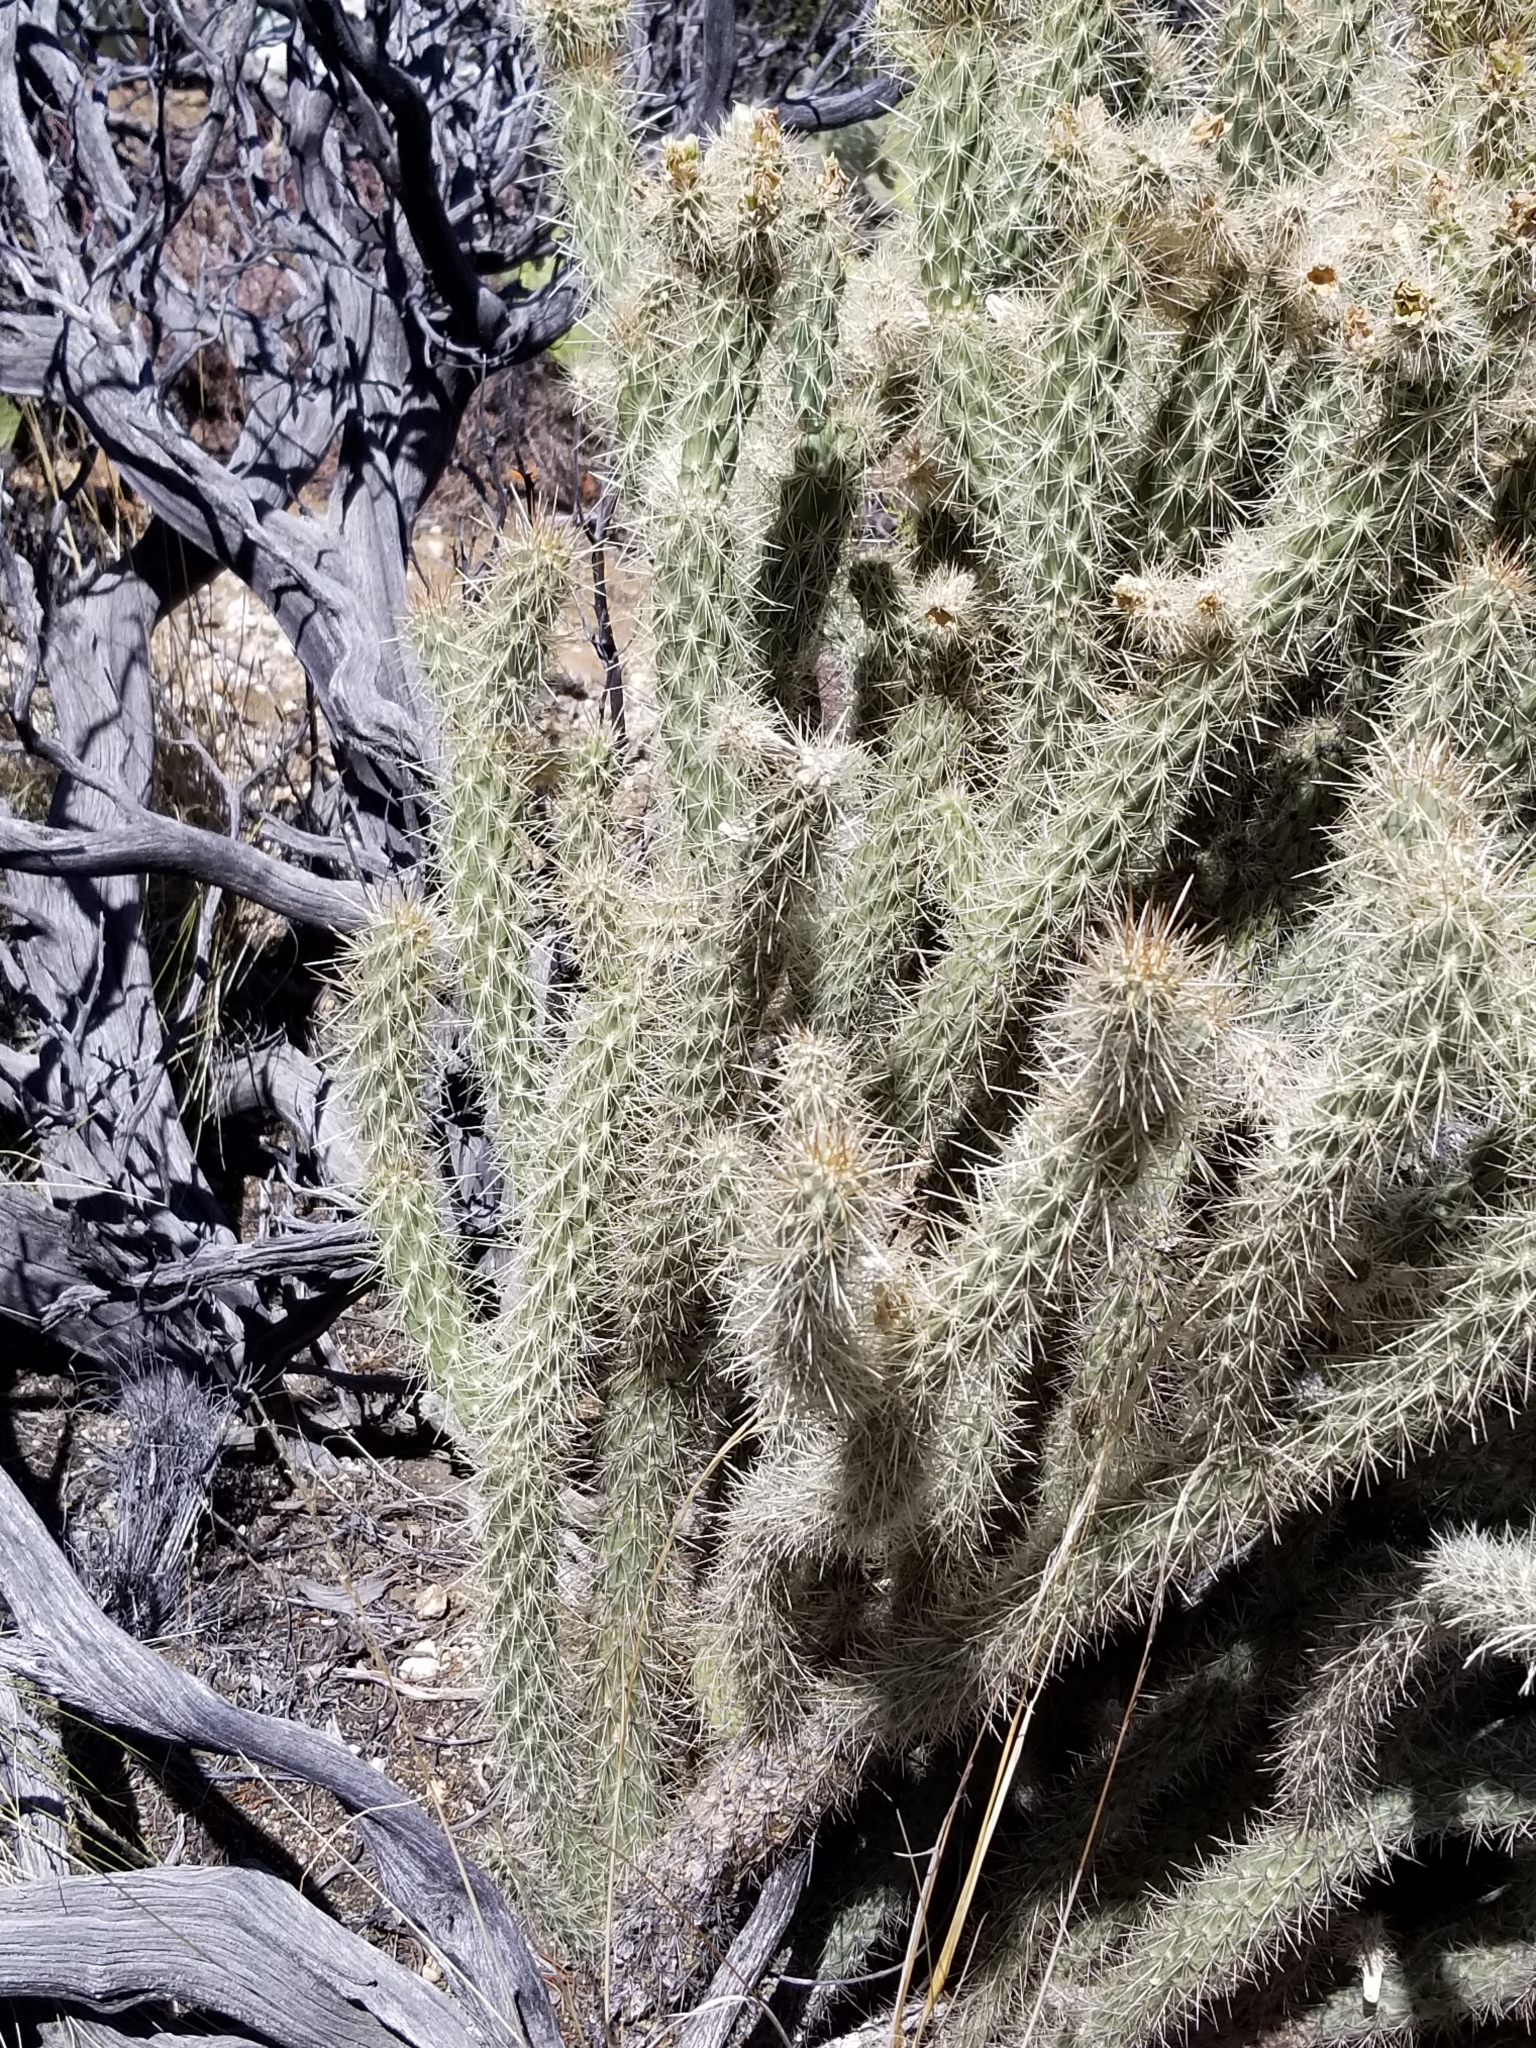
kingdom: Plantae
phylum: Tracheophyta
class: Magnoliopsida
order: Caryophyllales
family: Cactaceae
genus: Cylindropuntia
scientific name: Cylindropuntia ganderi
